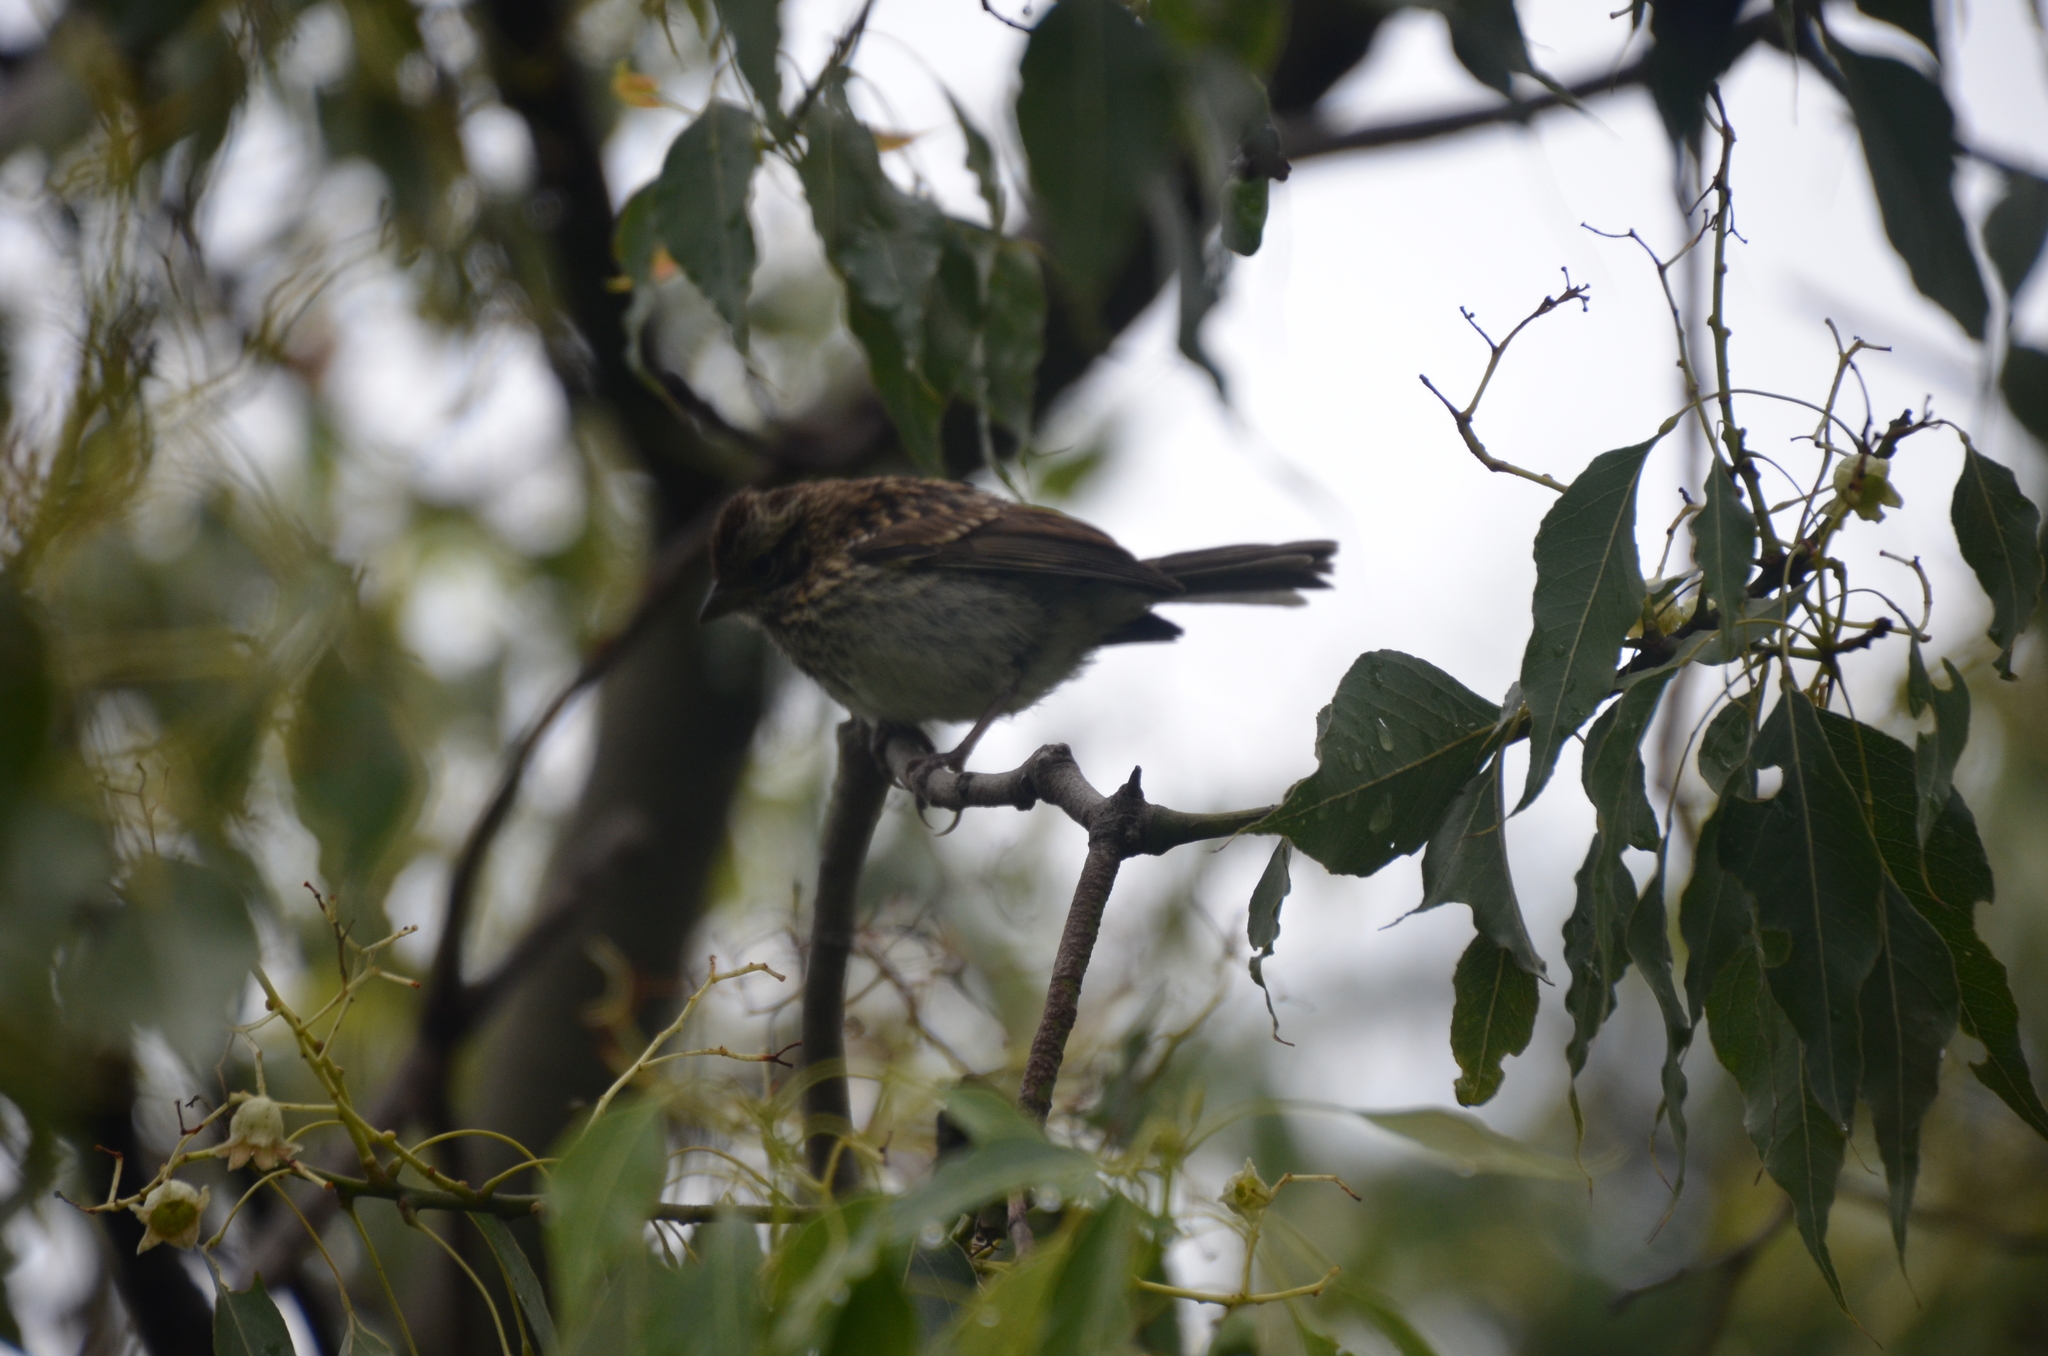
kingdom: Animalia
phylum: Chordata
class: Aves
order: Passeriformes
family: Passerellidae
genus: Zonotrichia
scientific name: Zonotrichia capensis
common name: Rufous-collared sparrow
